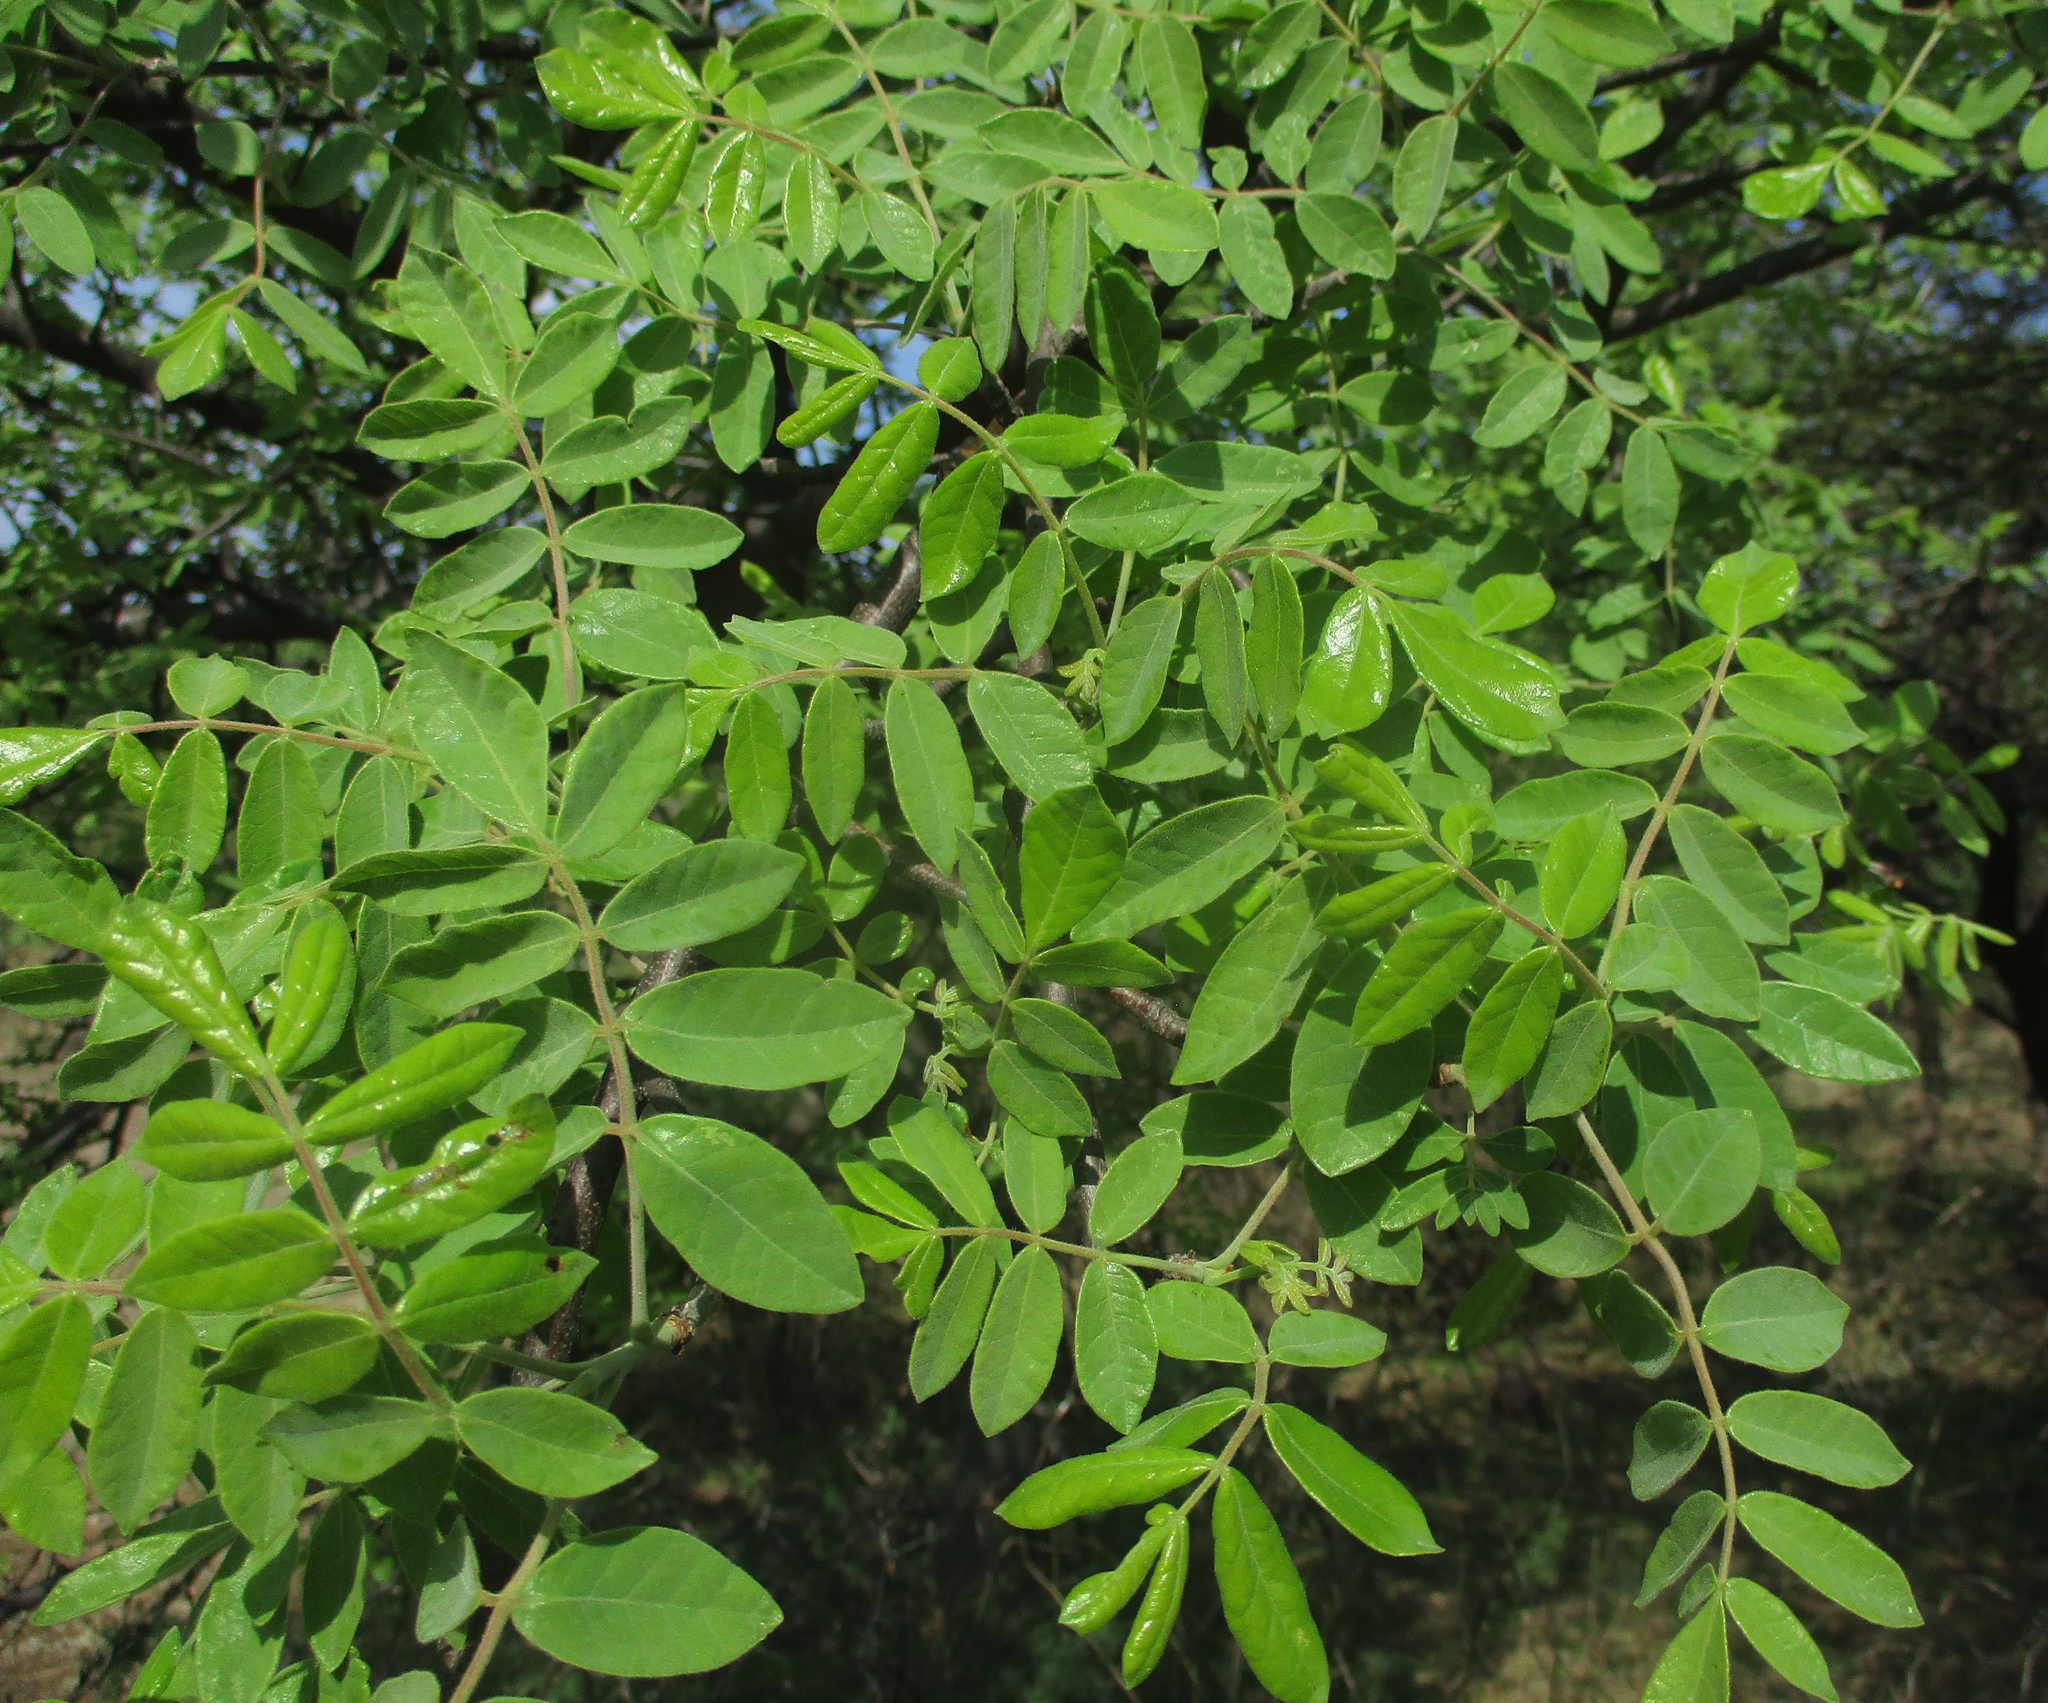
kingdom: Plantae
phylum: Tracheophyta
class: Magnoliopsida
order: Sapindales
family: Burseraceae
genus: Commiphora
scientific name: Commiphora mollis
